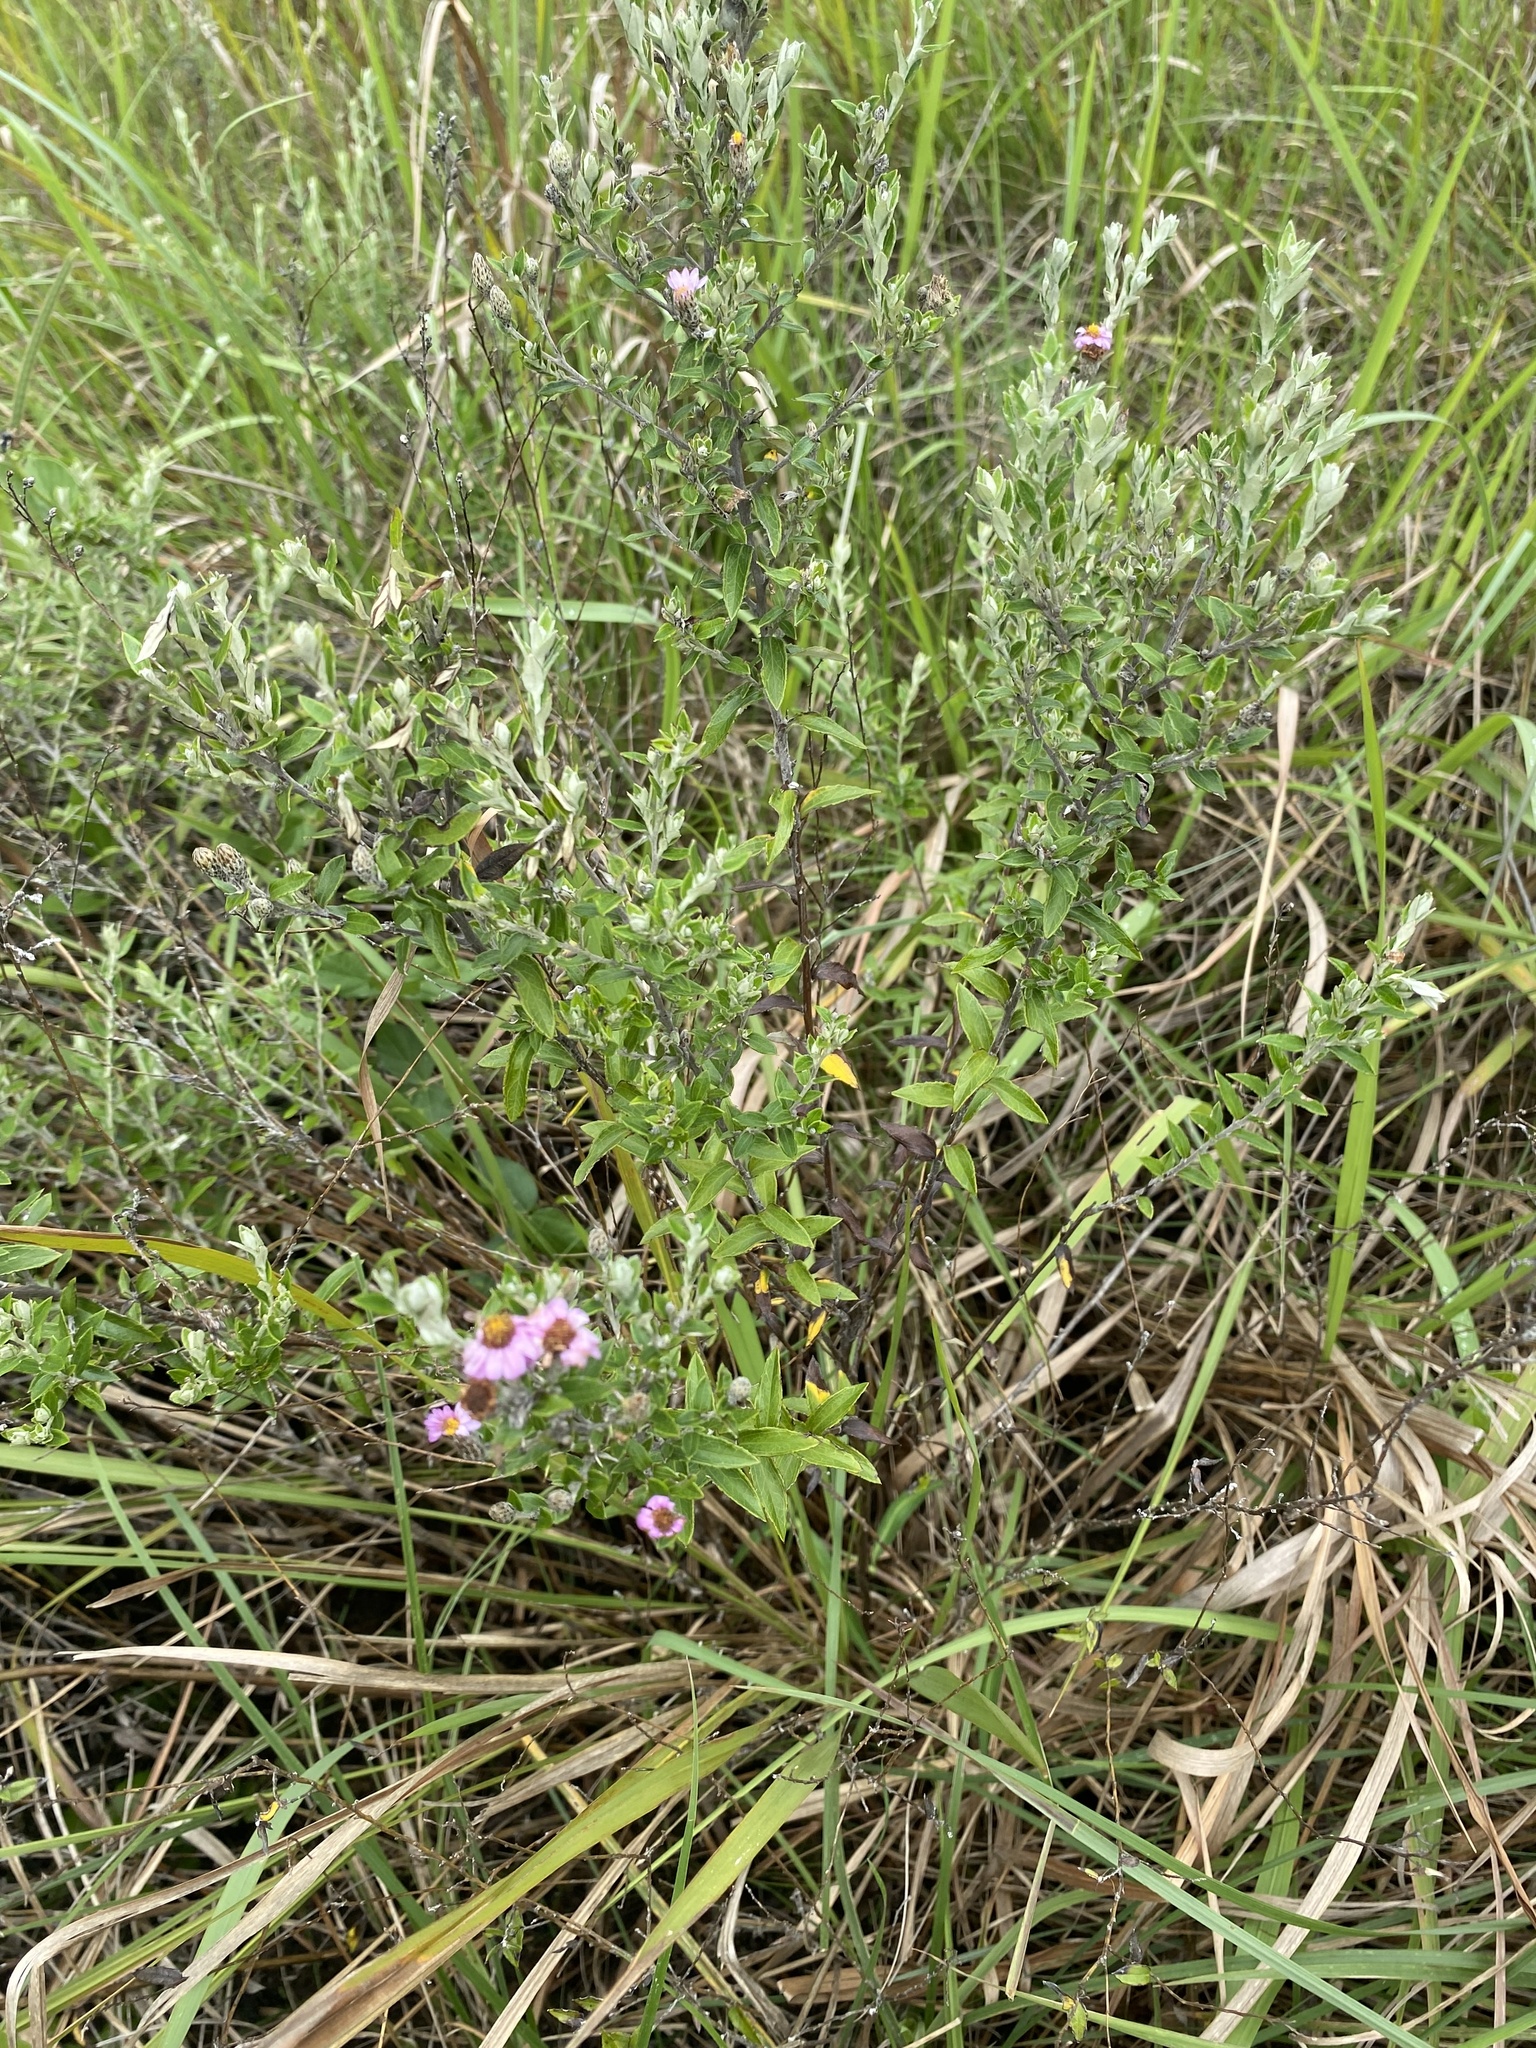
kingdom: Plantae
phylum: Tracheophyta
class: Magnoliopsida
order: Asterales
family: Asteraceae
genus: Athrixia
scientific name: Athrixia phylicoides
